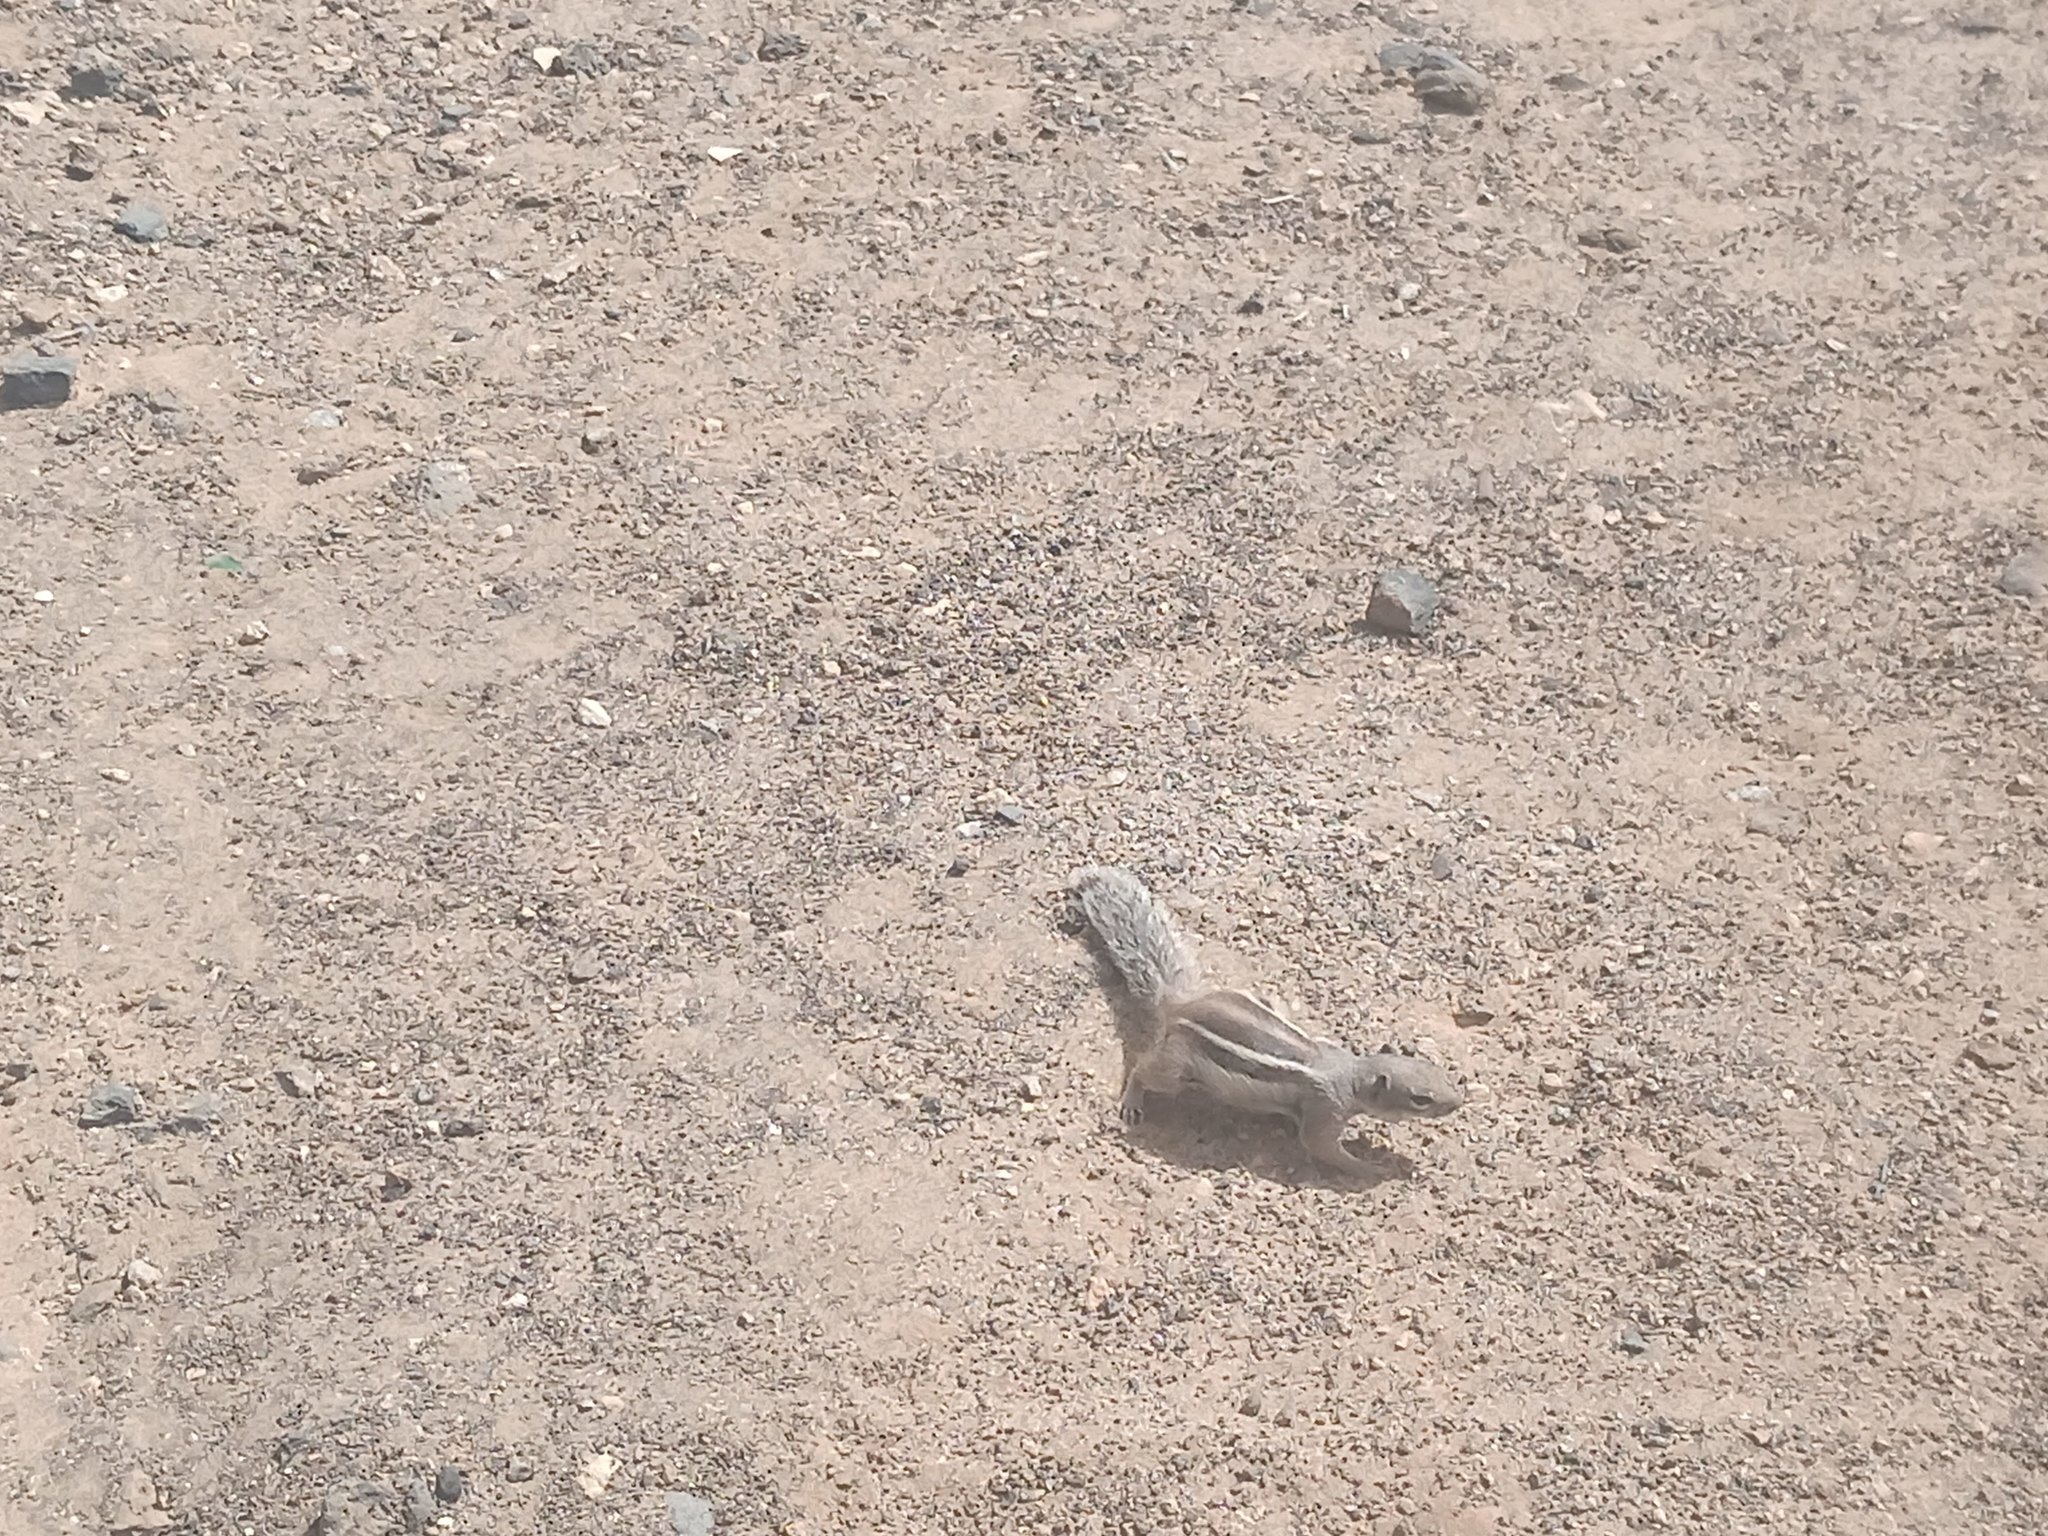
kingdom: Animalia
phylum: Chordata
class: Mammalia
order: Rodentia
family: Sciuridae
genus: Atlantoxerus
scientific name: Atlantoxerus getulus
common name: Barbary ground squirrel
